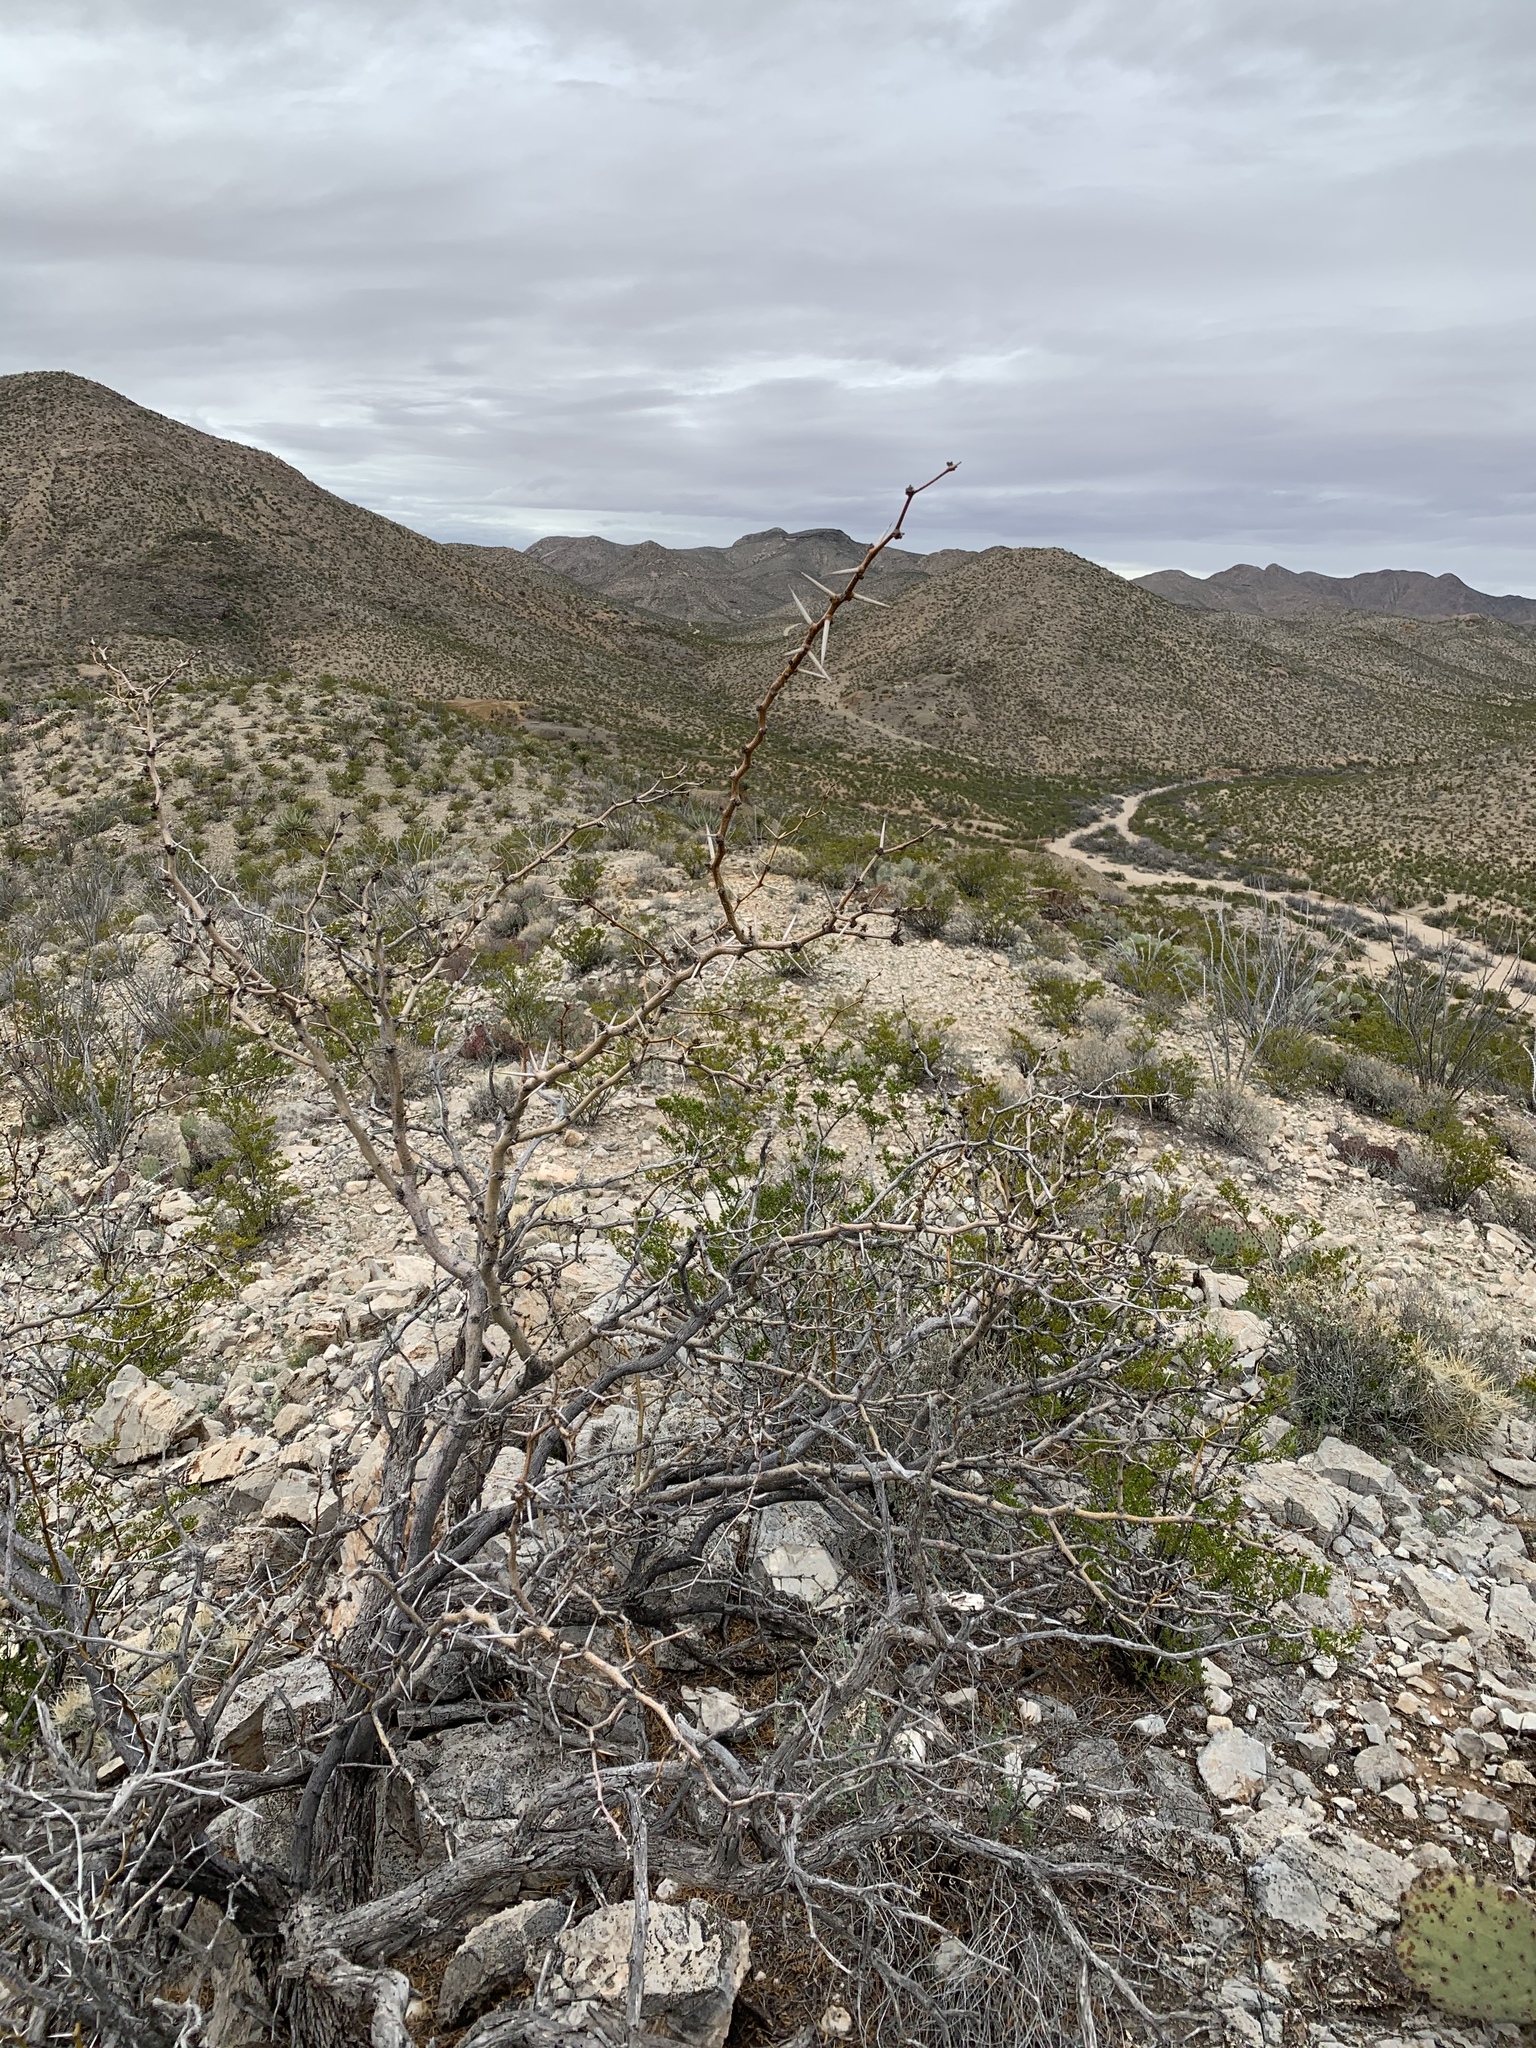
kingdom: Plantae
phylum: Tracheophyta
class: Magnoliopsida
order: Fabales
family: Fabaceae
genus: Prosopis
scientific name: Prosopis glandulosa
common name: Honey mesquite
